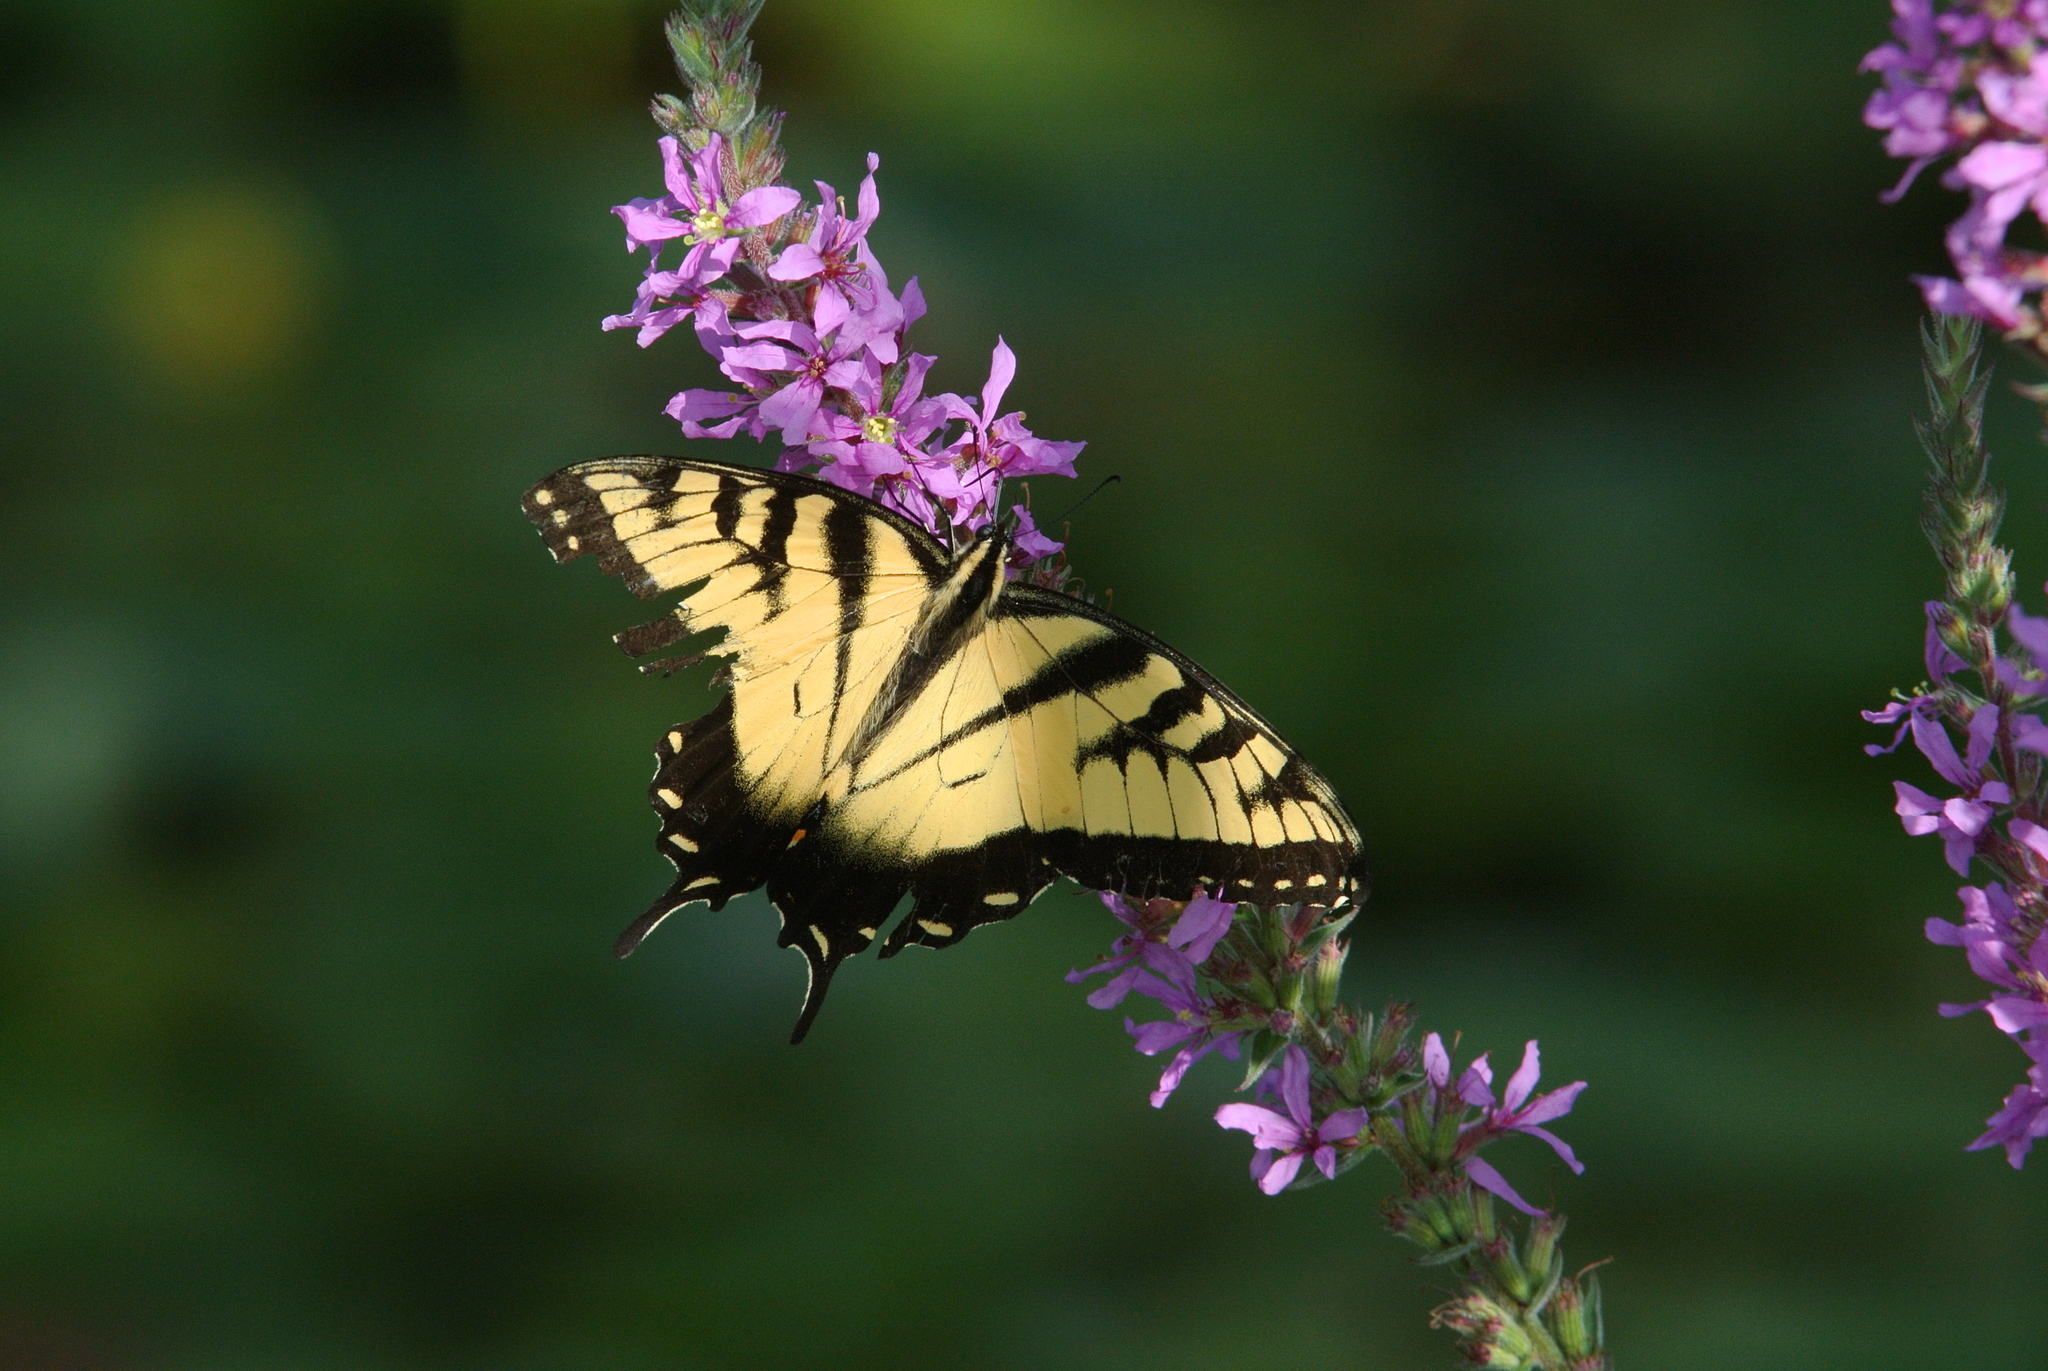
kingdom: Animalia
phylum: Arthropoda
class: Insecta
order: Lepidoptera
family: Papilionidae
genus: Papilio
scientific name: Papilio glaucus
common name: Tiger swallowtail
